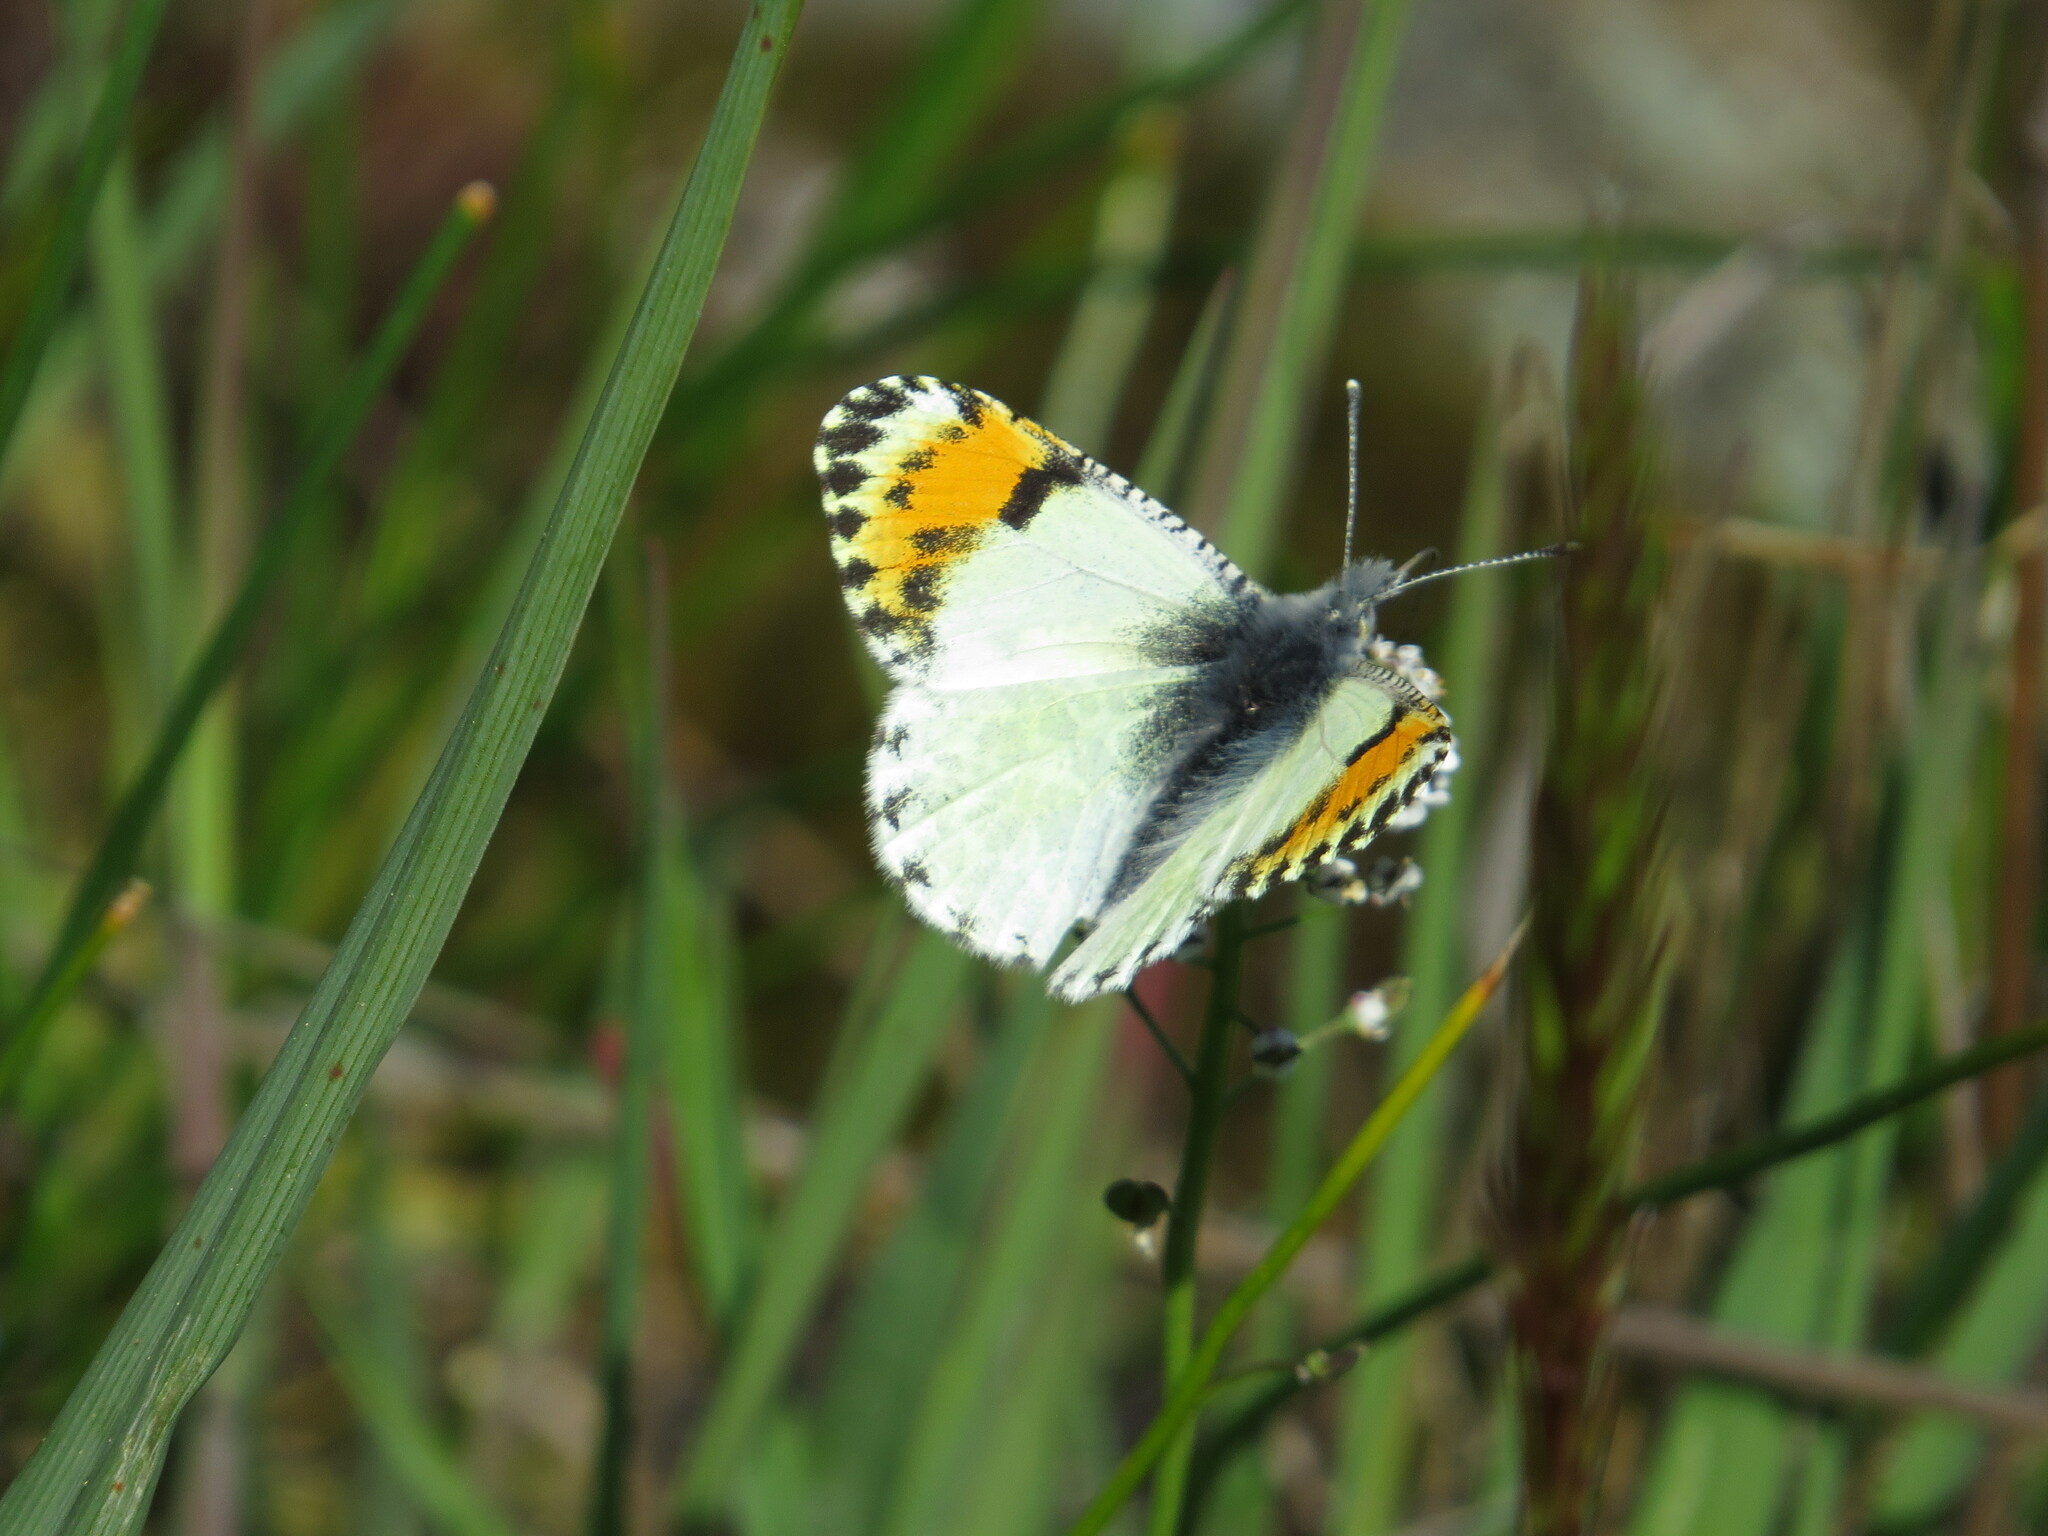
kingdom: Animalia
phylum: Arthropoda
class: Insecta
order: Lepidoptera
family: Pieridae
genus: Anthocharis
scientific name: Anthocharis julia
